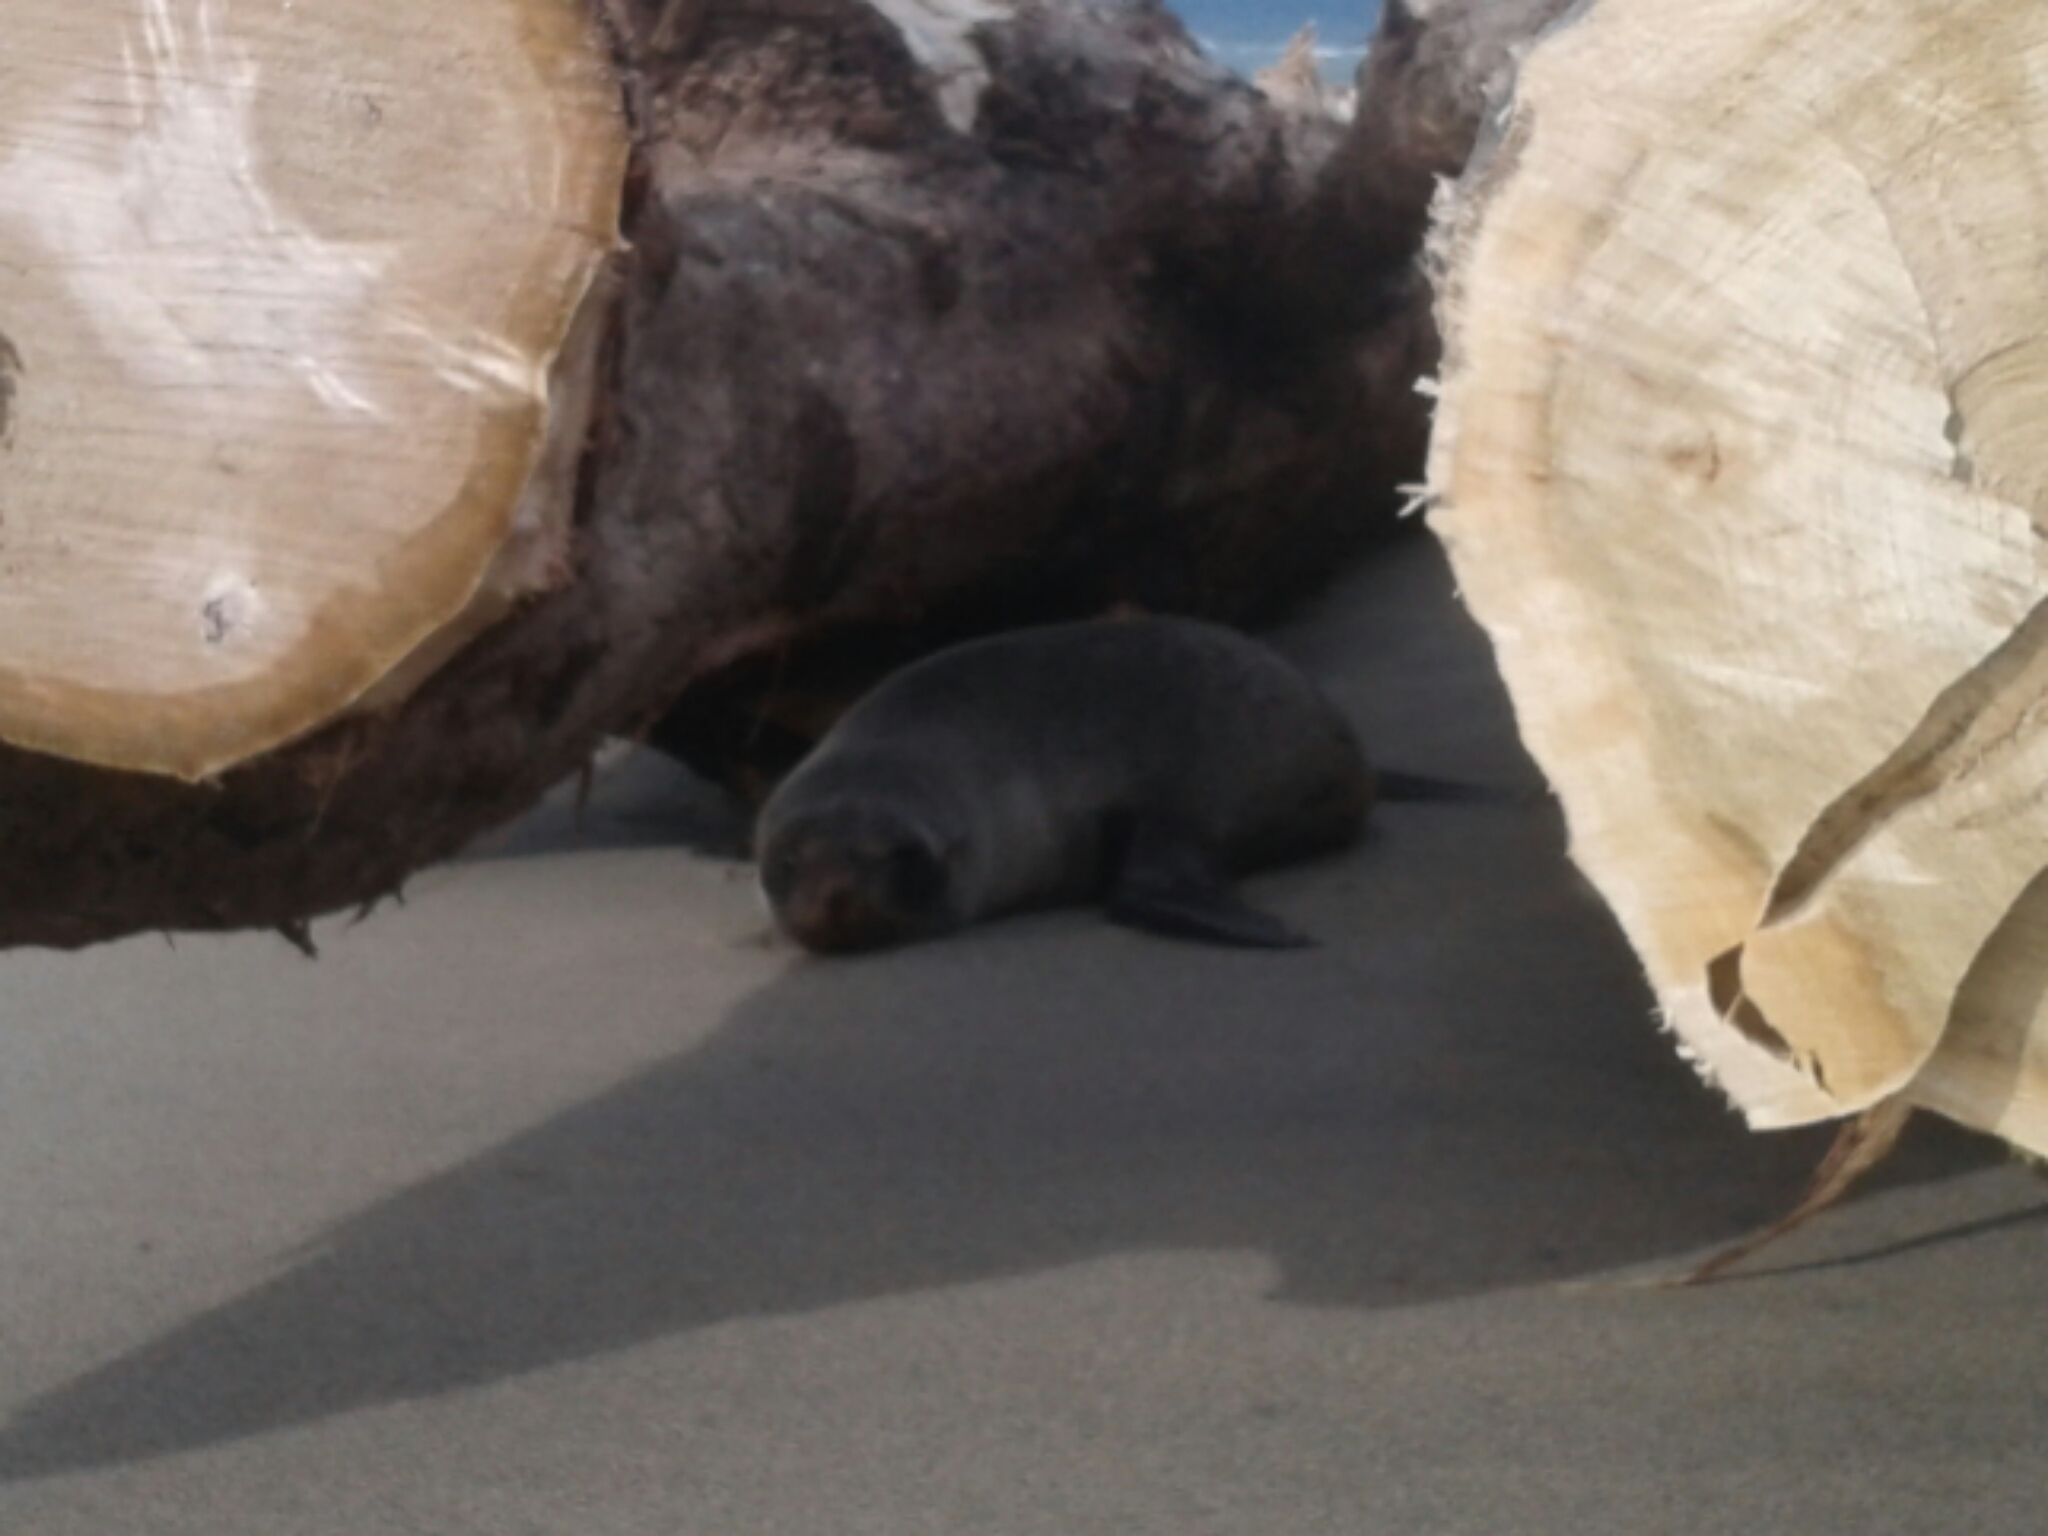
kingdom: Animalia
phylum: Chordata
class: Mammalia
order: Carnivora
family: Otariidae
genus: Arctocephalus
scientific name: Arctocephalus forsteri
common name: New zealand fur seal
